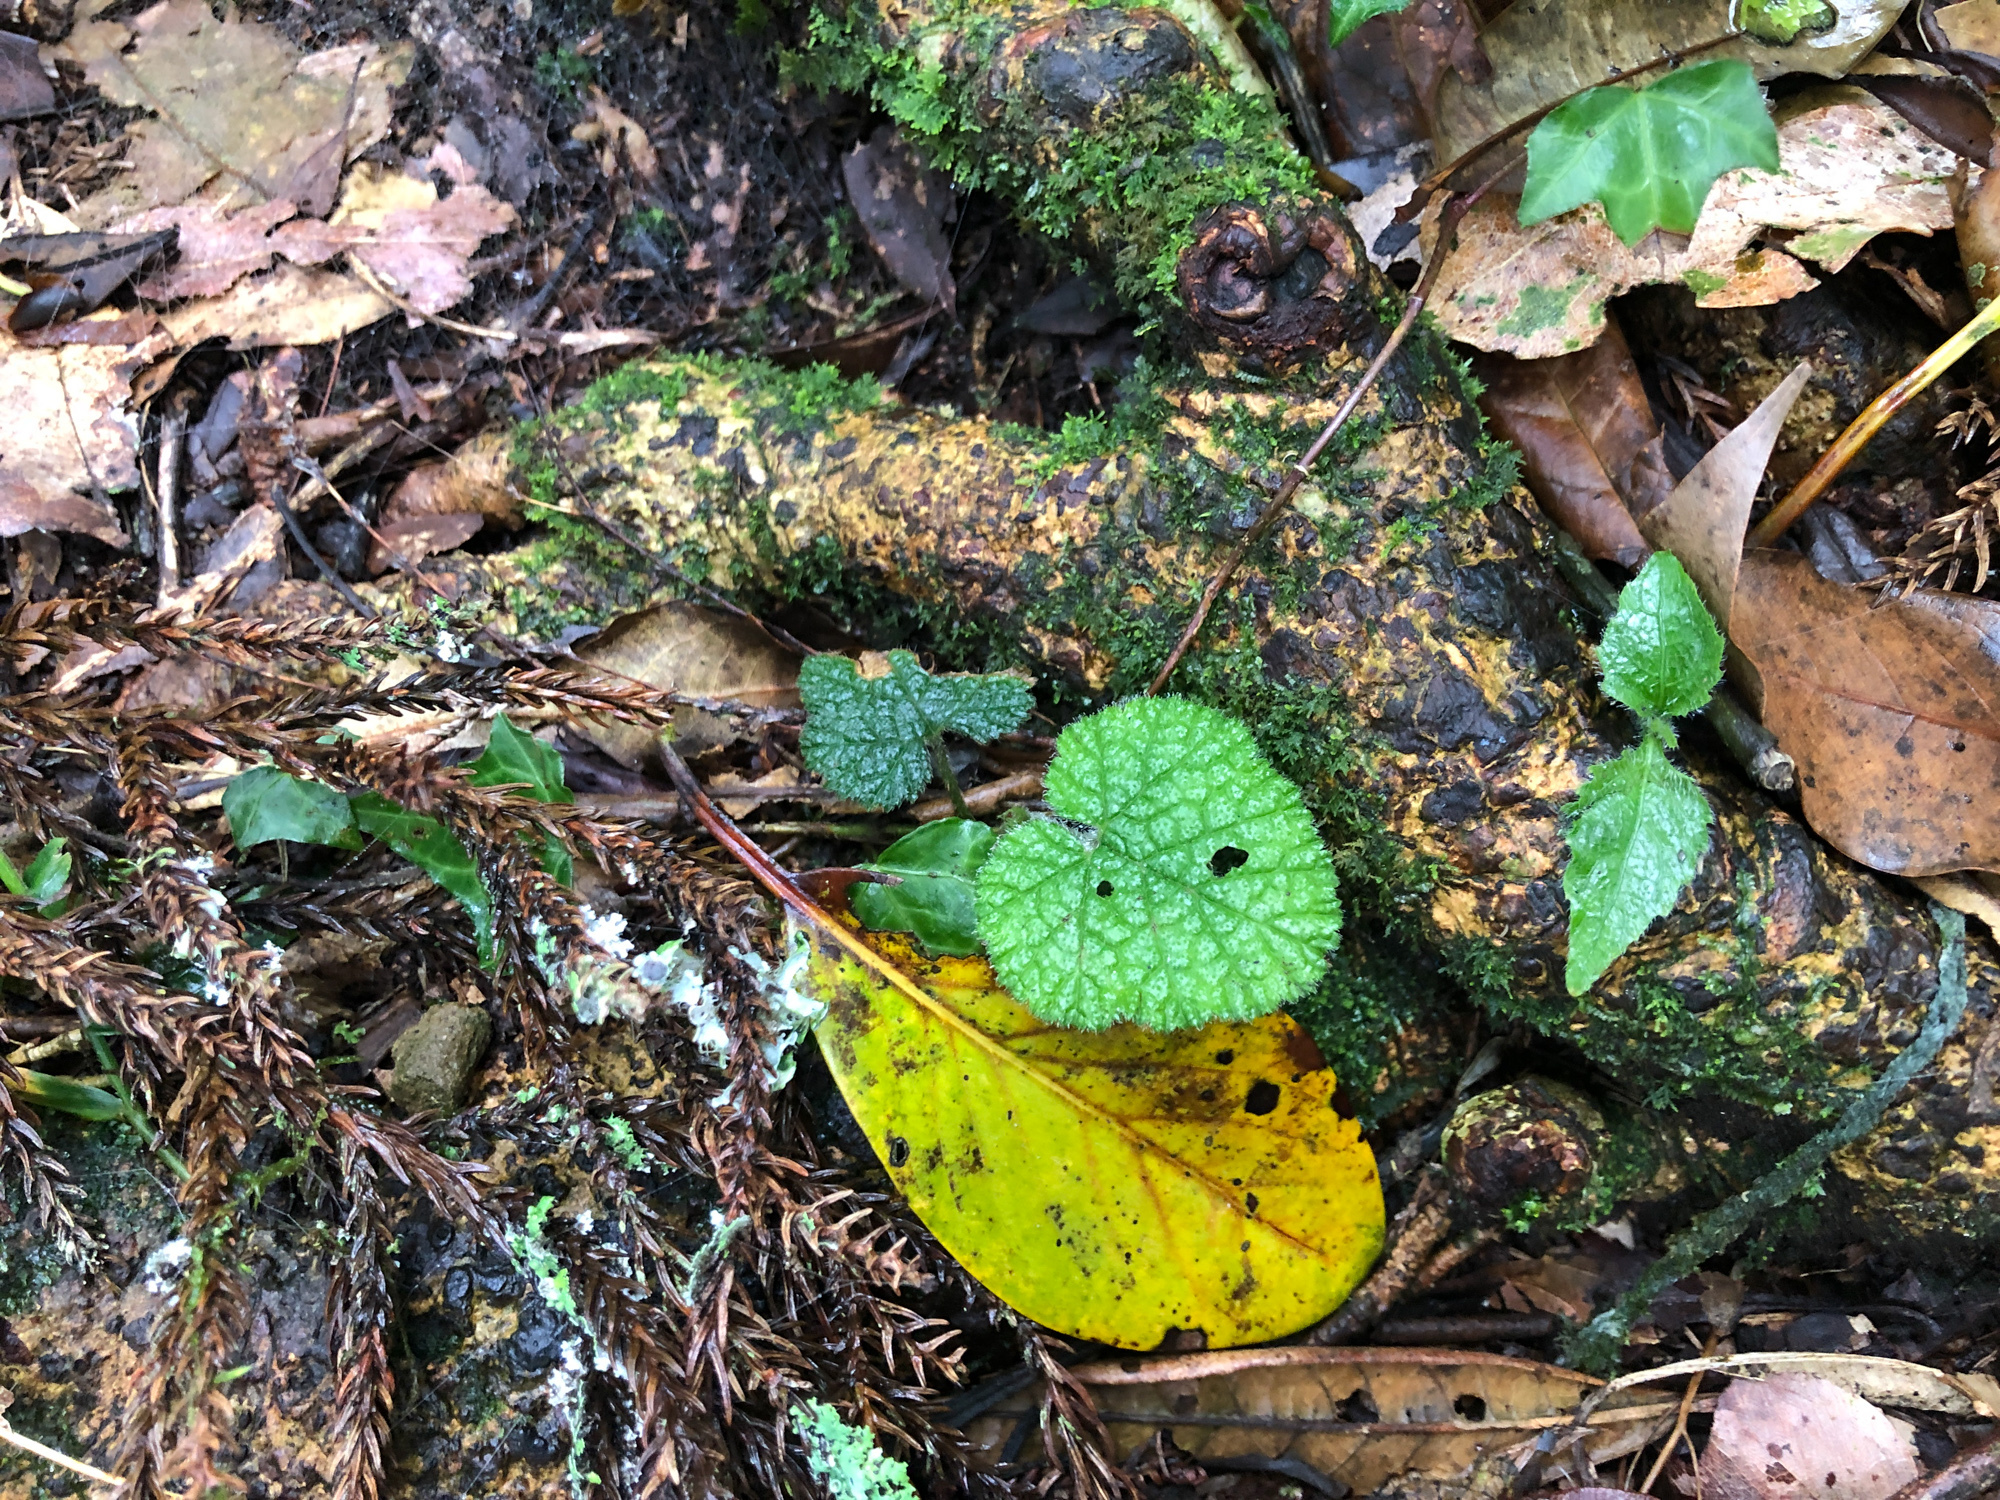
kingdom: Plantae
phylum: Tracheophyta
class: Magnoliopsida
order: Rosales
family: Rosaceae
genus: Rubus
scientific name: Rubus pectinellus
